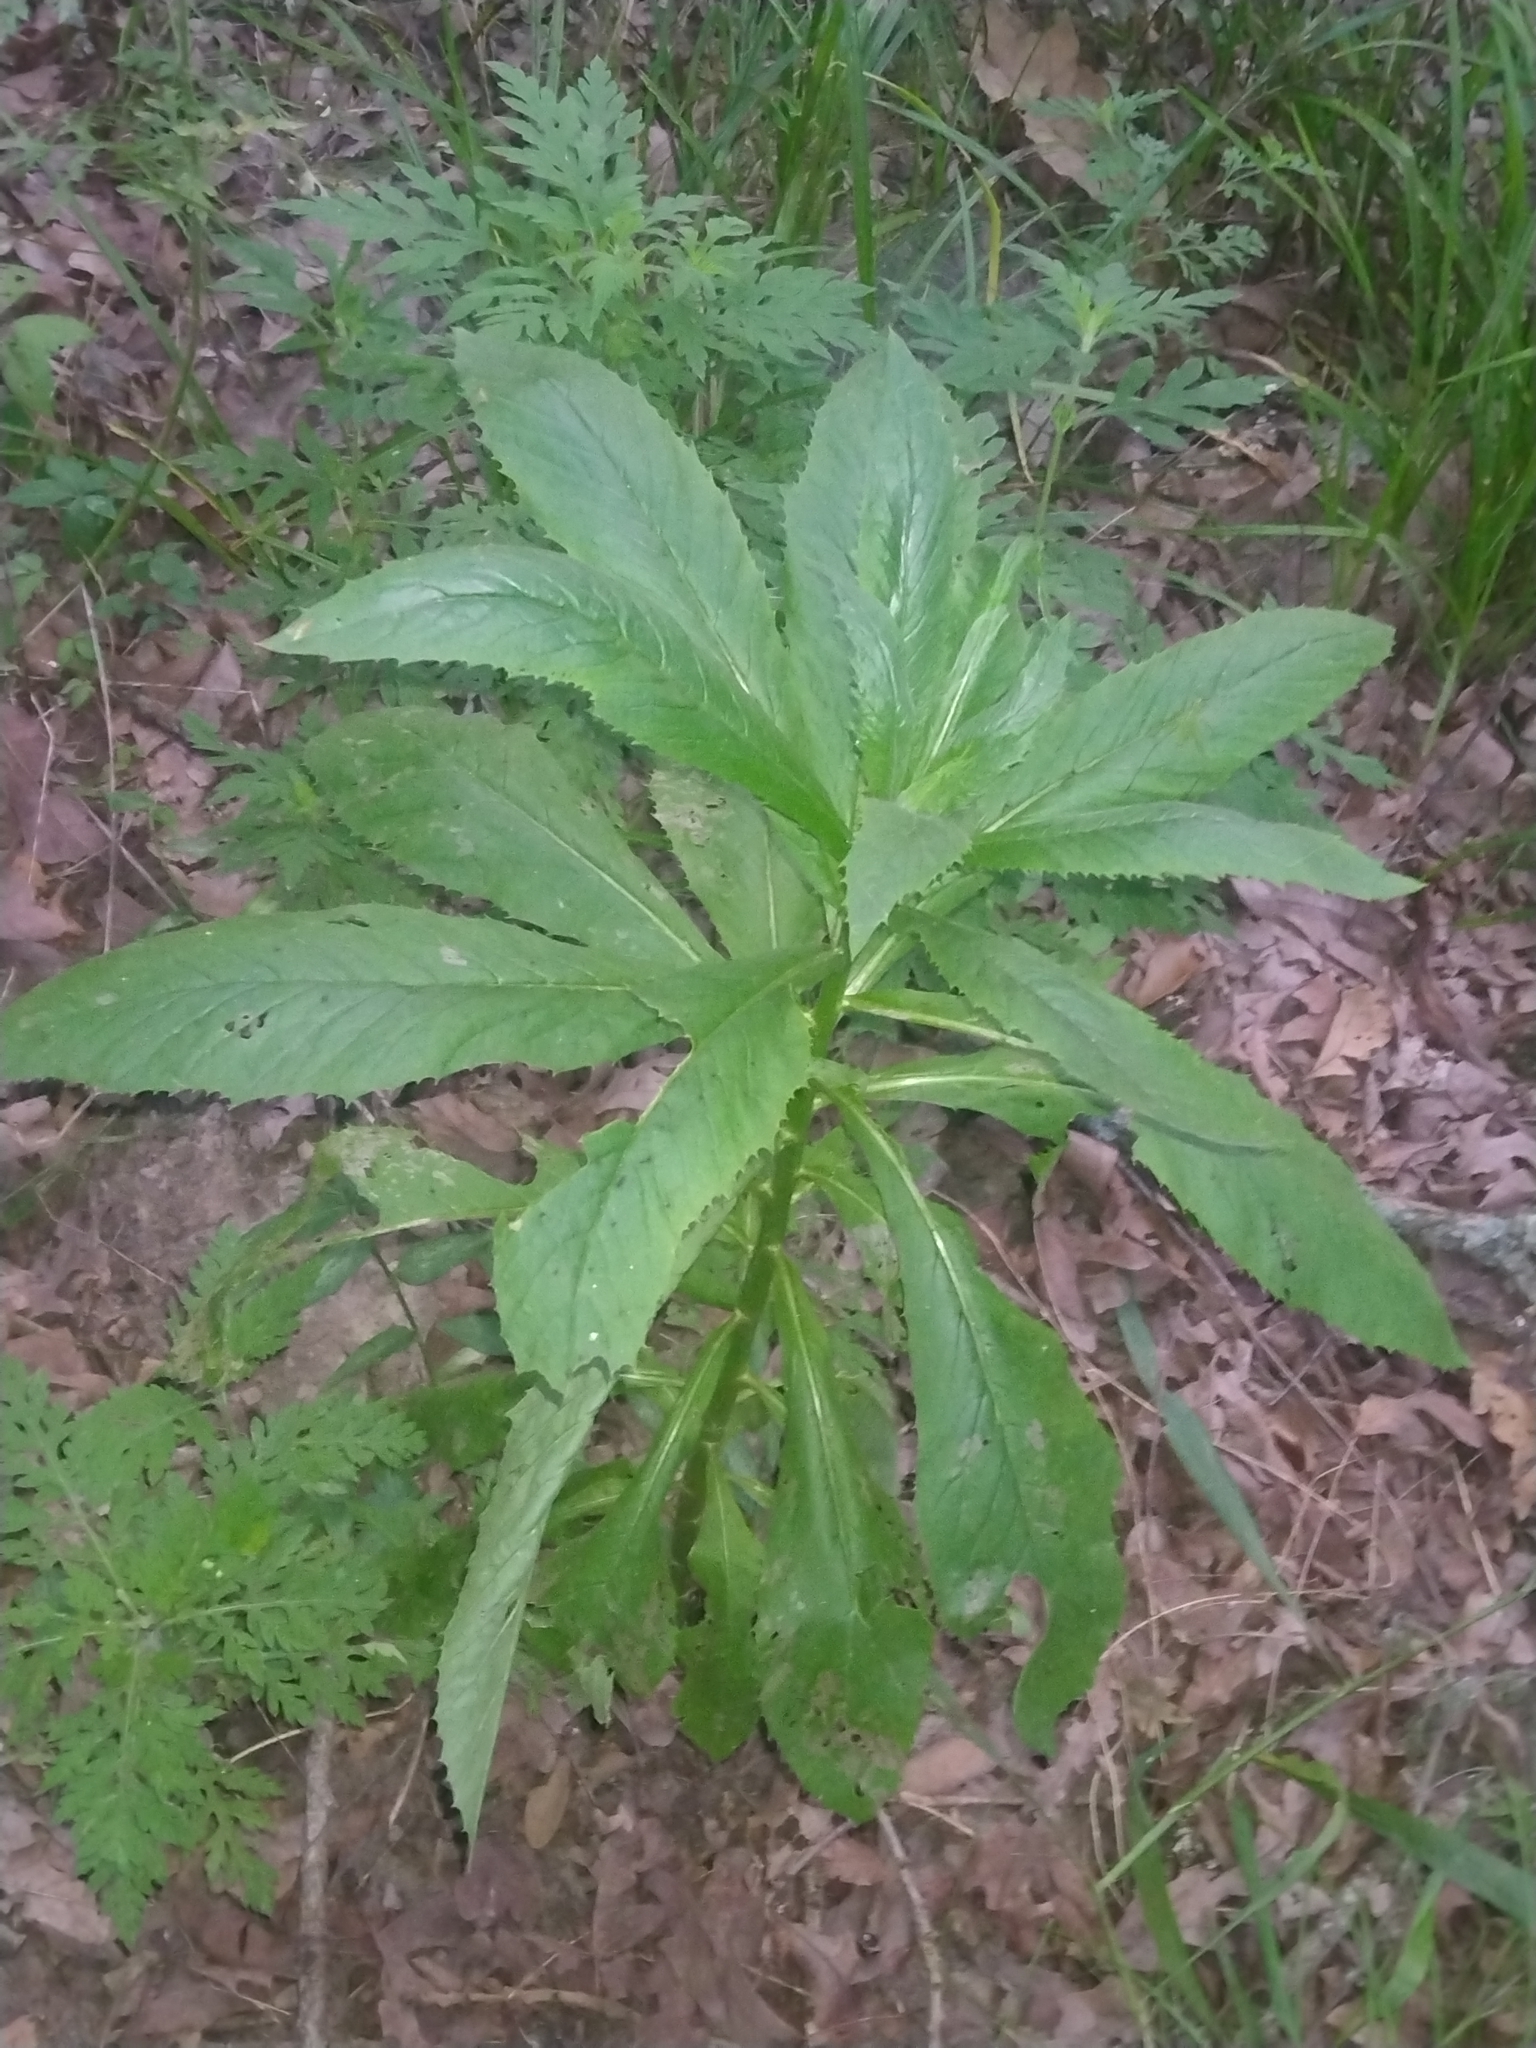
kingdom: Plantae
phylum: Tracheophyta
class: Magnoliopsida
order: Asterales
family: Asteraceae
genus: Erechtites
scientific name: Erechtites hieraciifolius
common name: American burnweed
